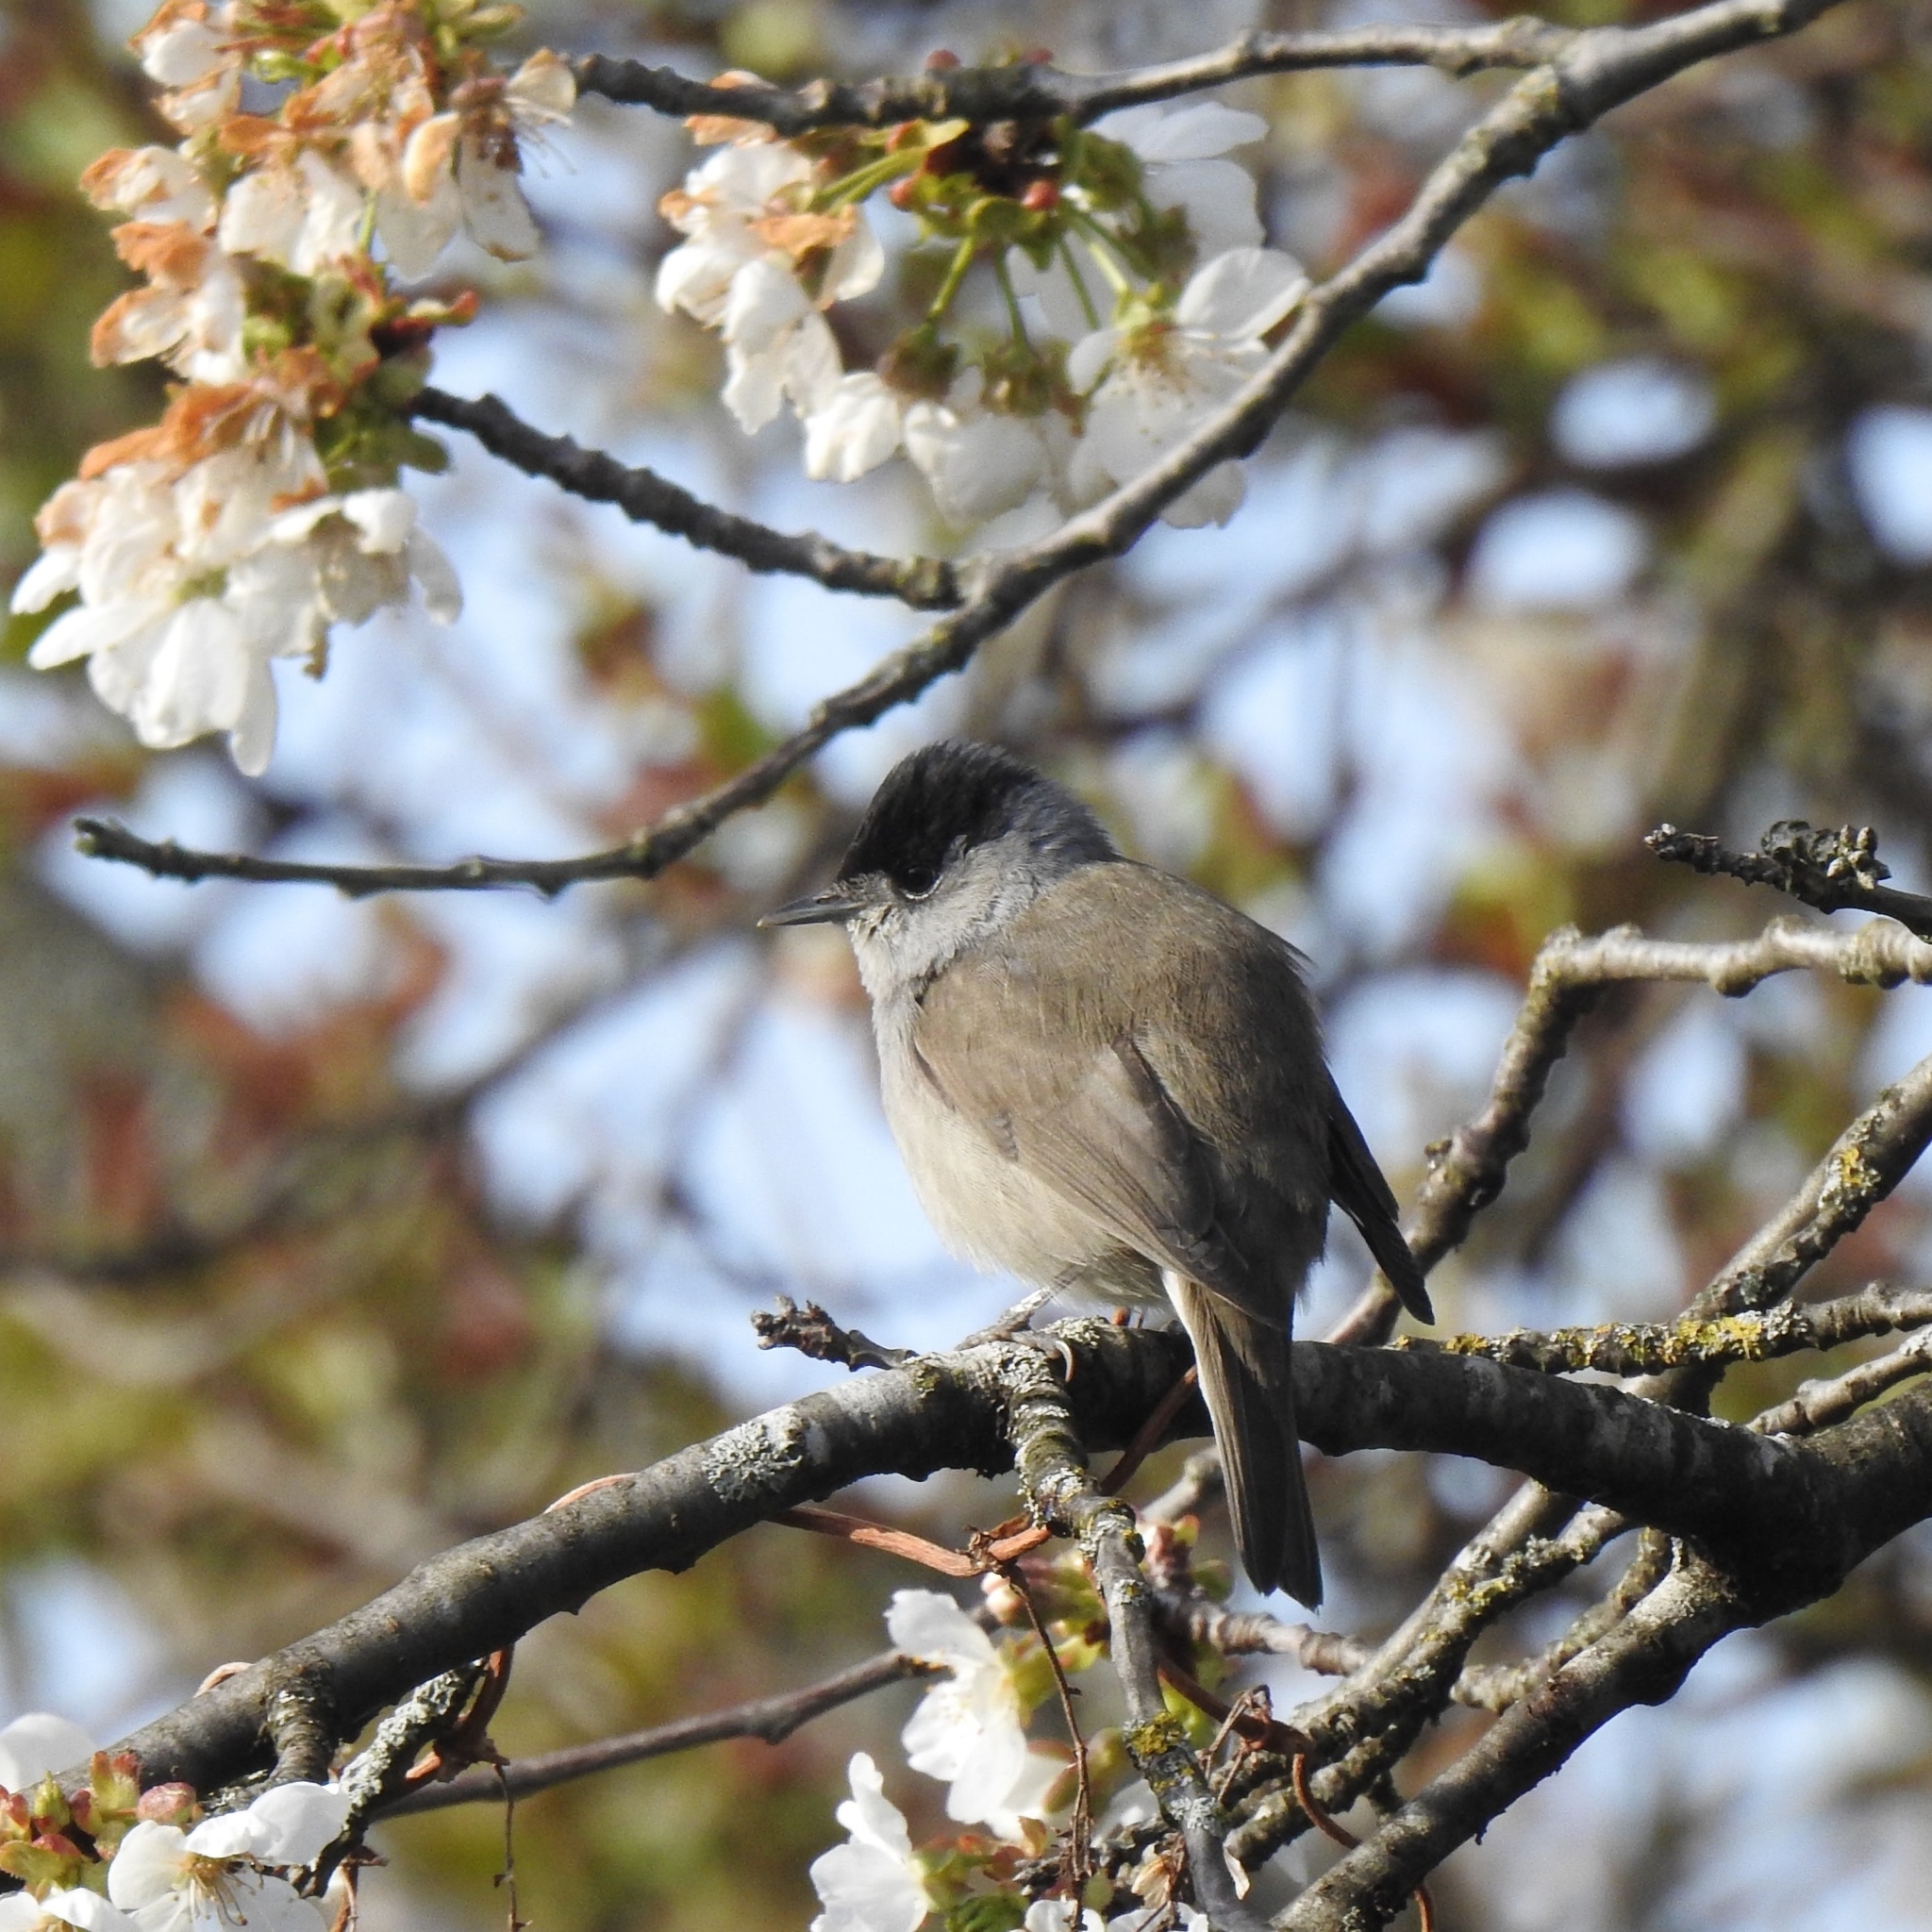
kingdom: Animalia
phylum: Chordata
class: Aves
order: Passeriformes
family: Sylviidae
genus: Sylvia
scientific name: Sylvia atricapilla
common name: Eurasian blackcap
